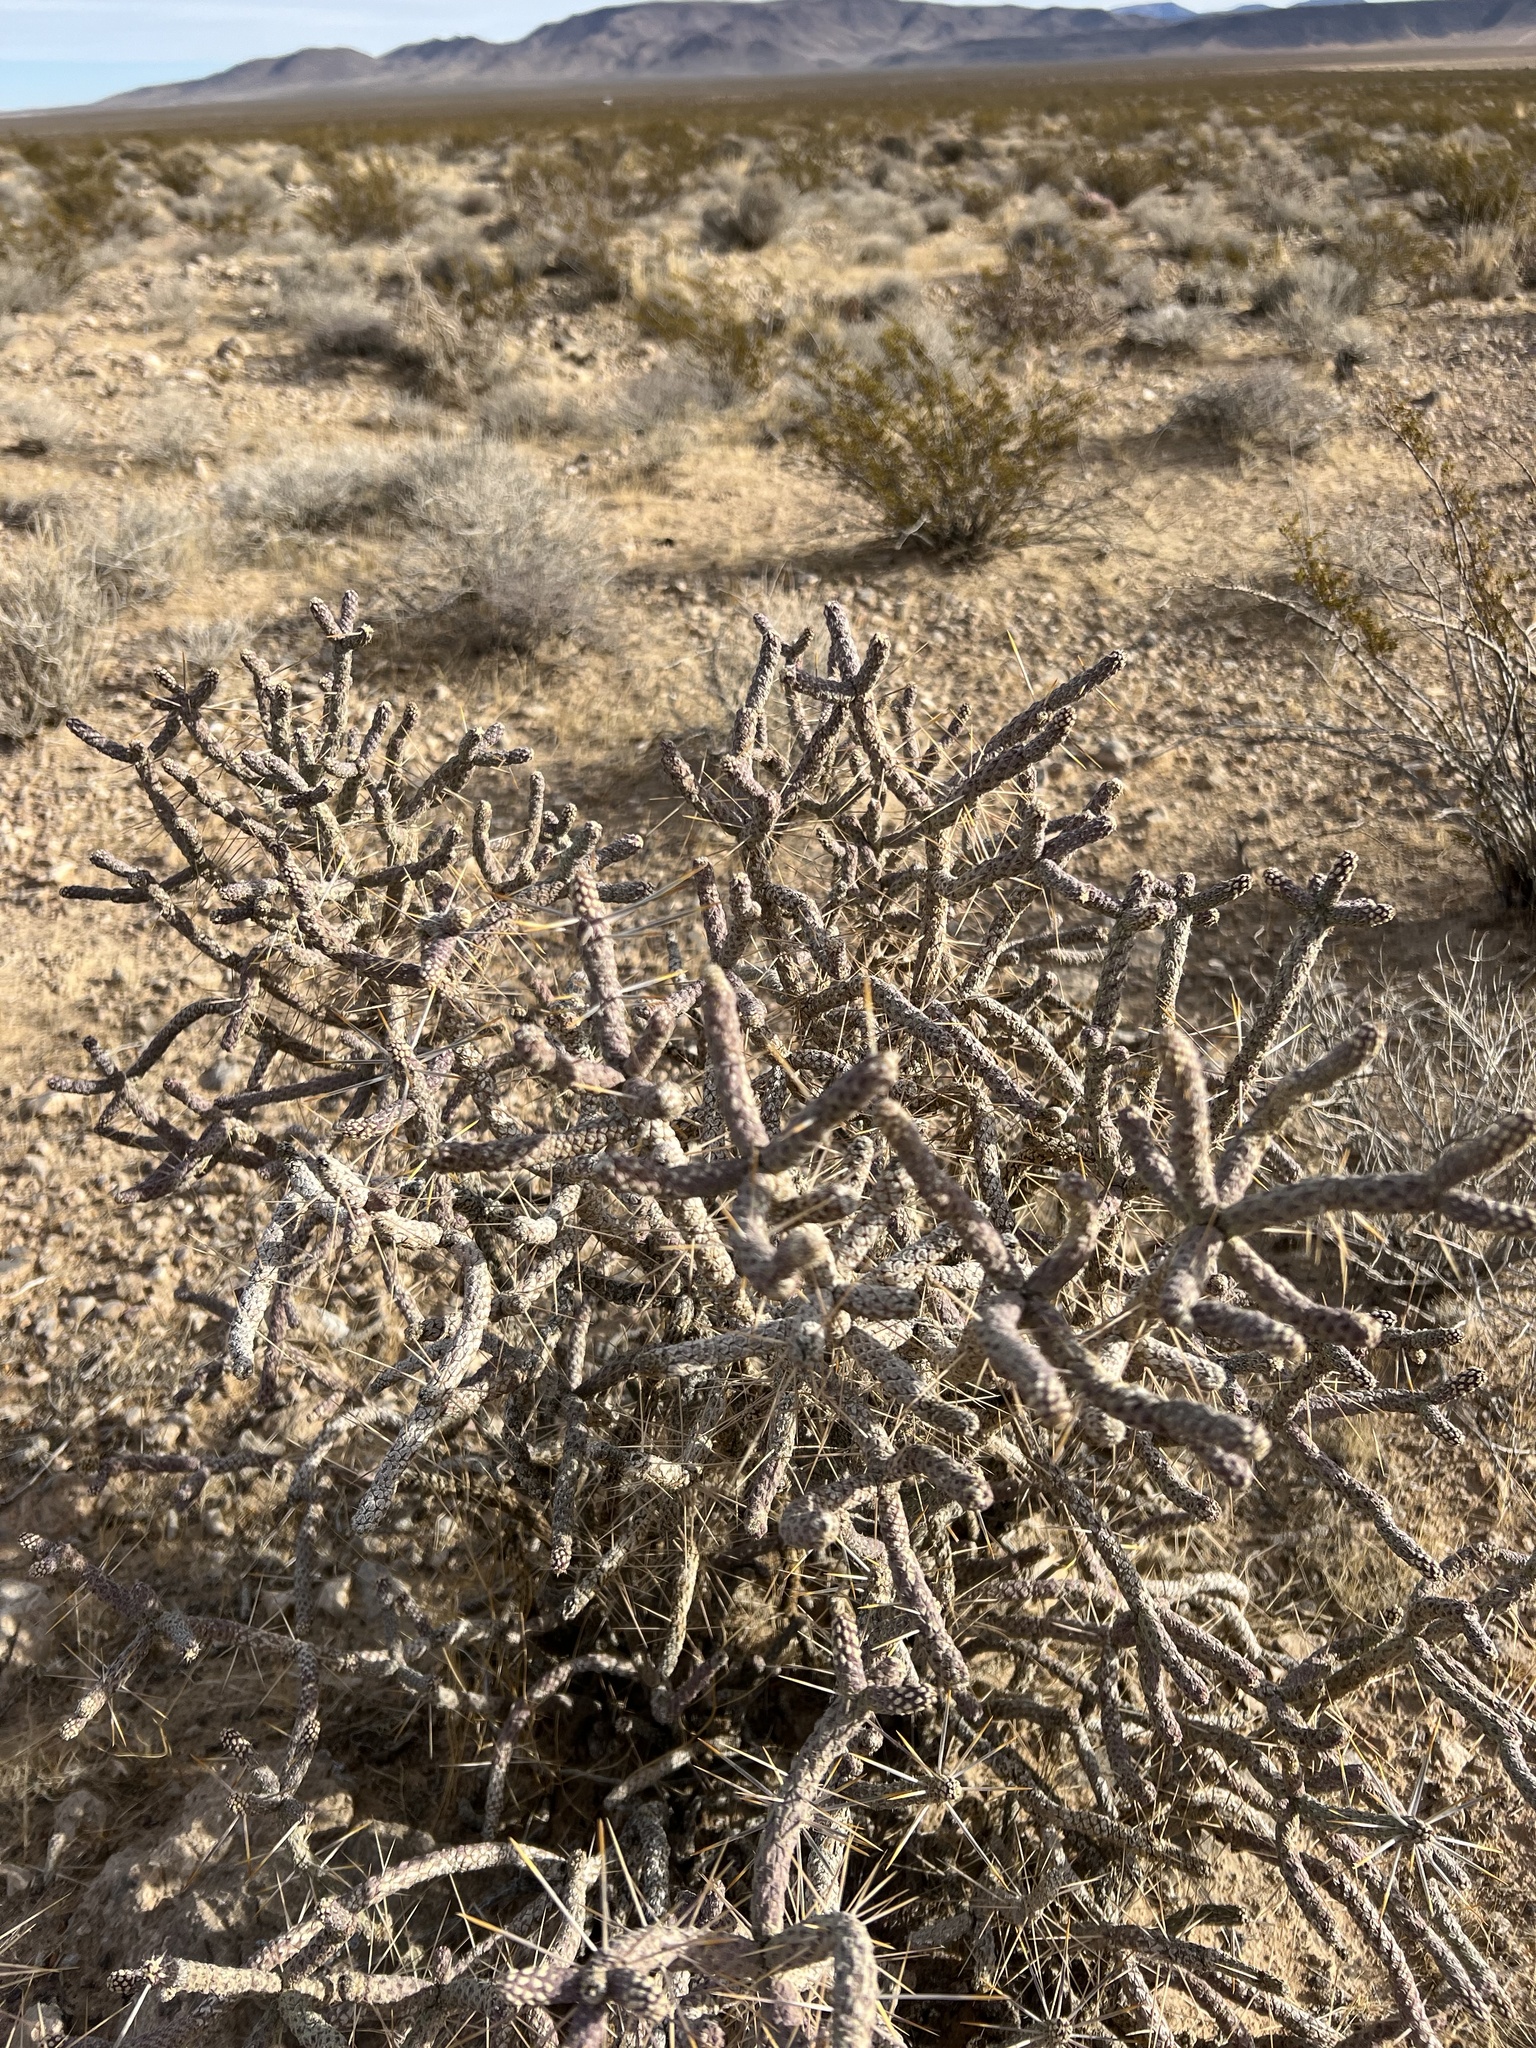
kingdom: Plantae
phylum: Tracheophyta
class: Magnoliopsida
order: Caryophyllales
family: Cactaceae
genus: Cylindropuntia
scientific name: Cylindropuntia ramosissima
